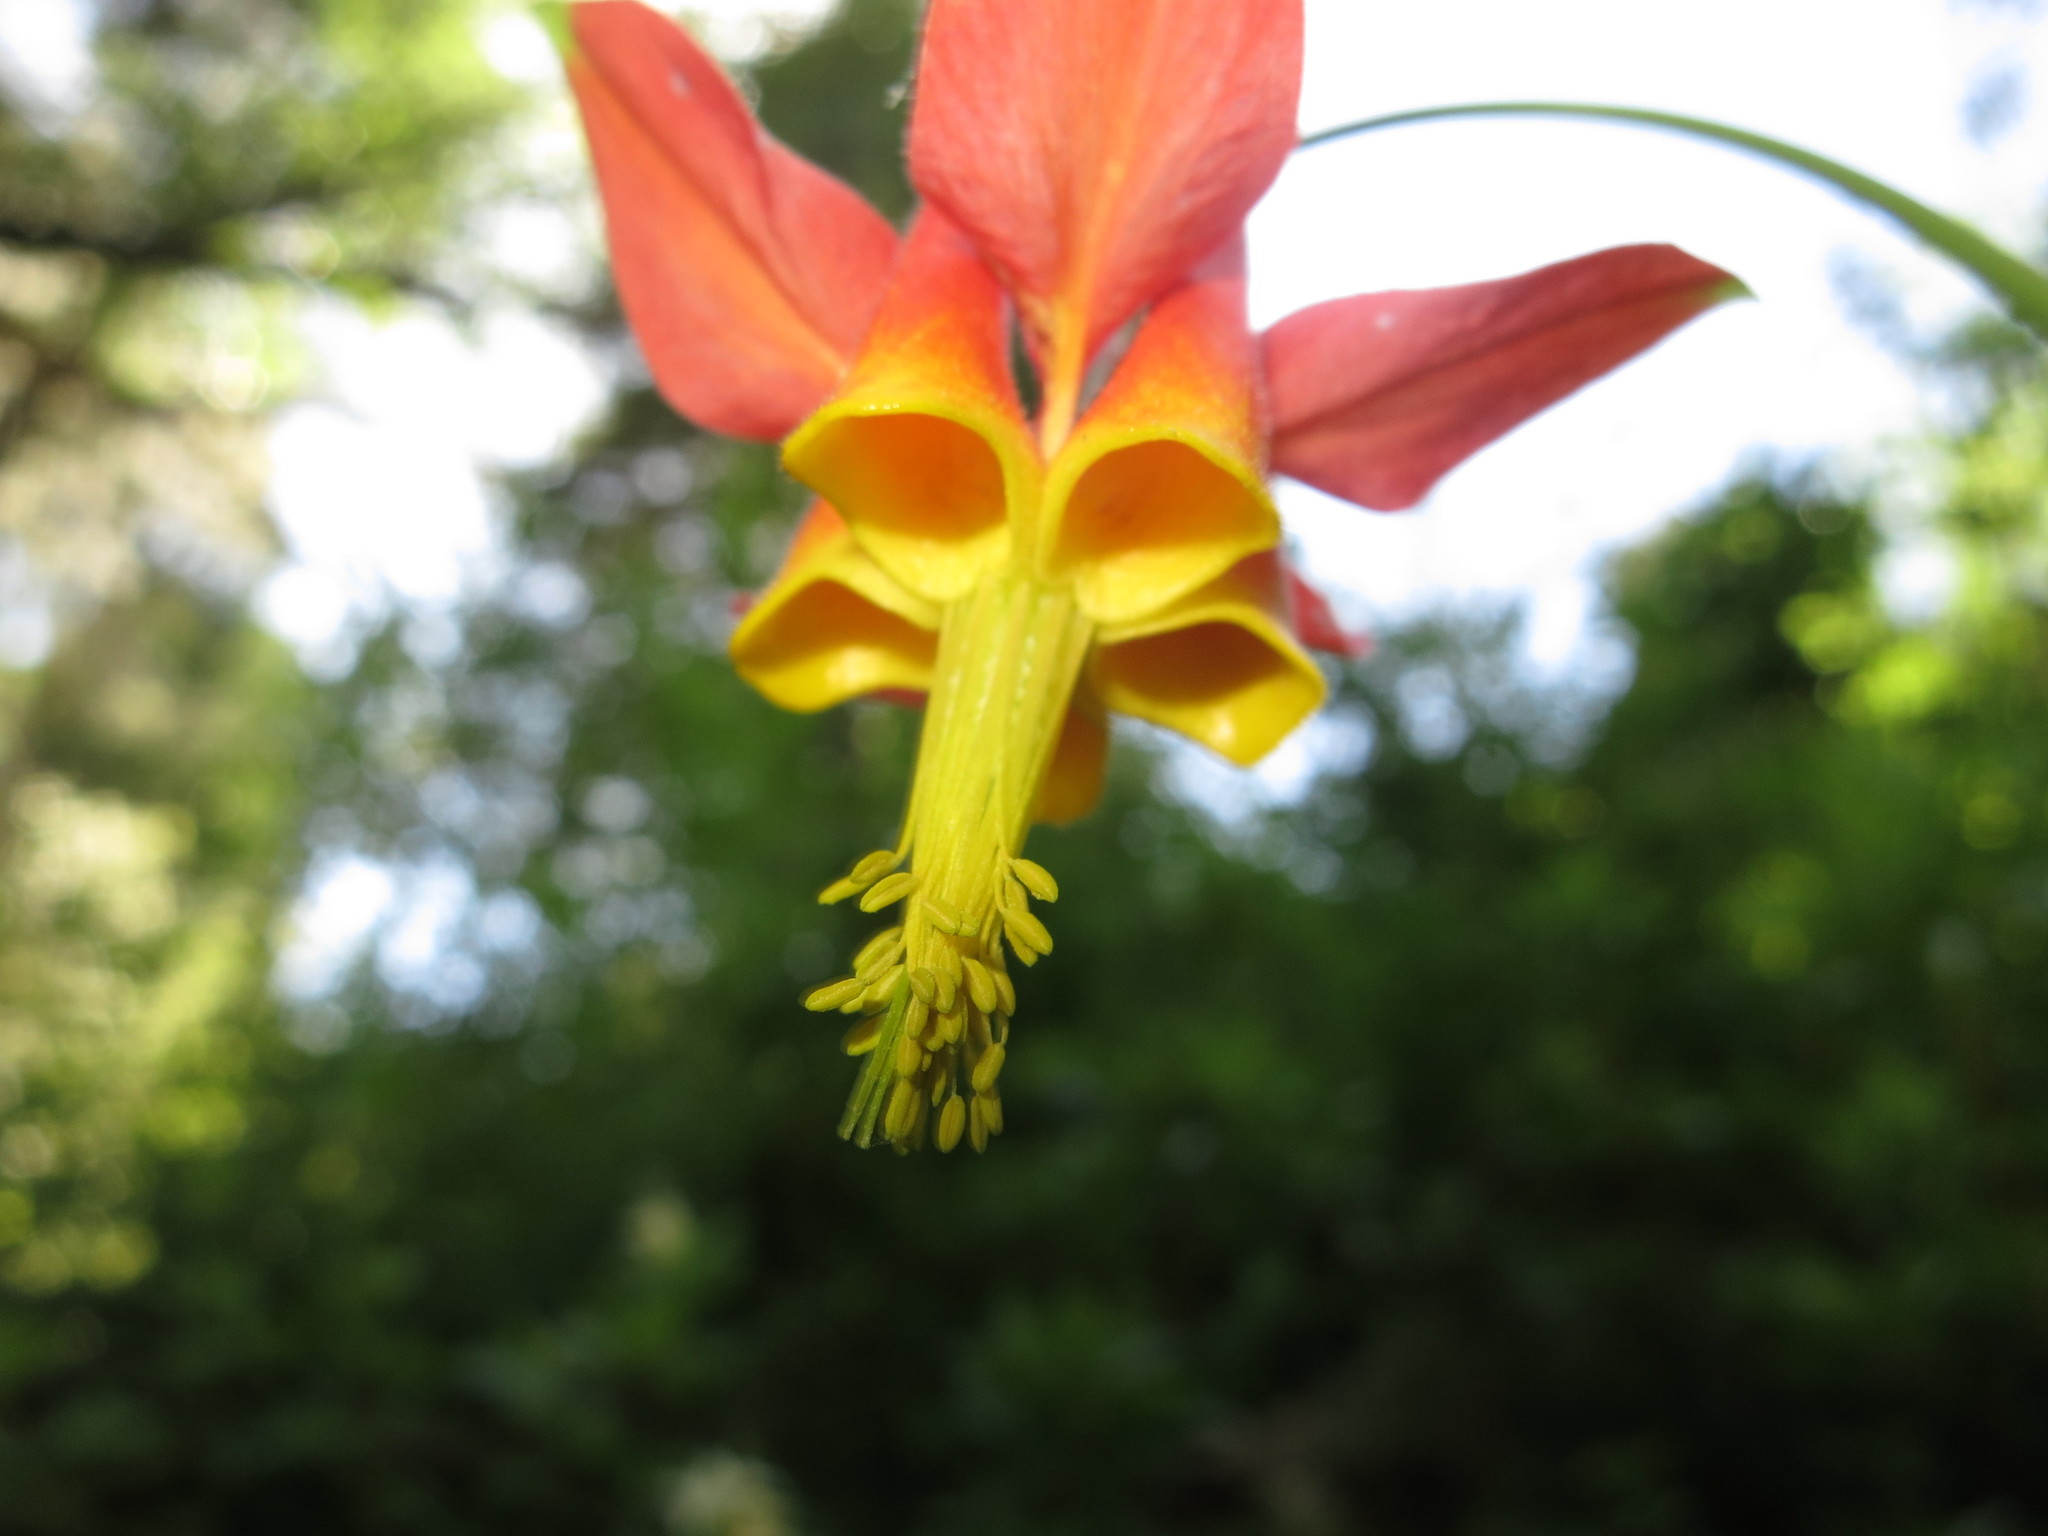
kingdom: Plantae
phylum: Tracheophyta
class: Magnoliopsida
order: Ranunculales
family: Ranunculaceae
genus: Aquilegia
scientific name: Aquilegia formosa
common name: Sitka columbine
